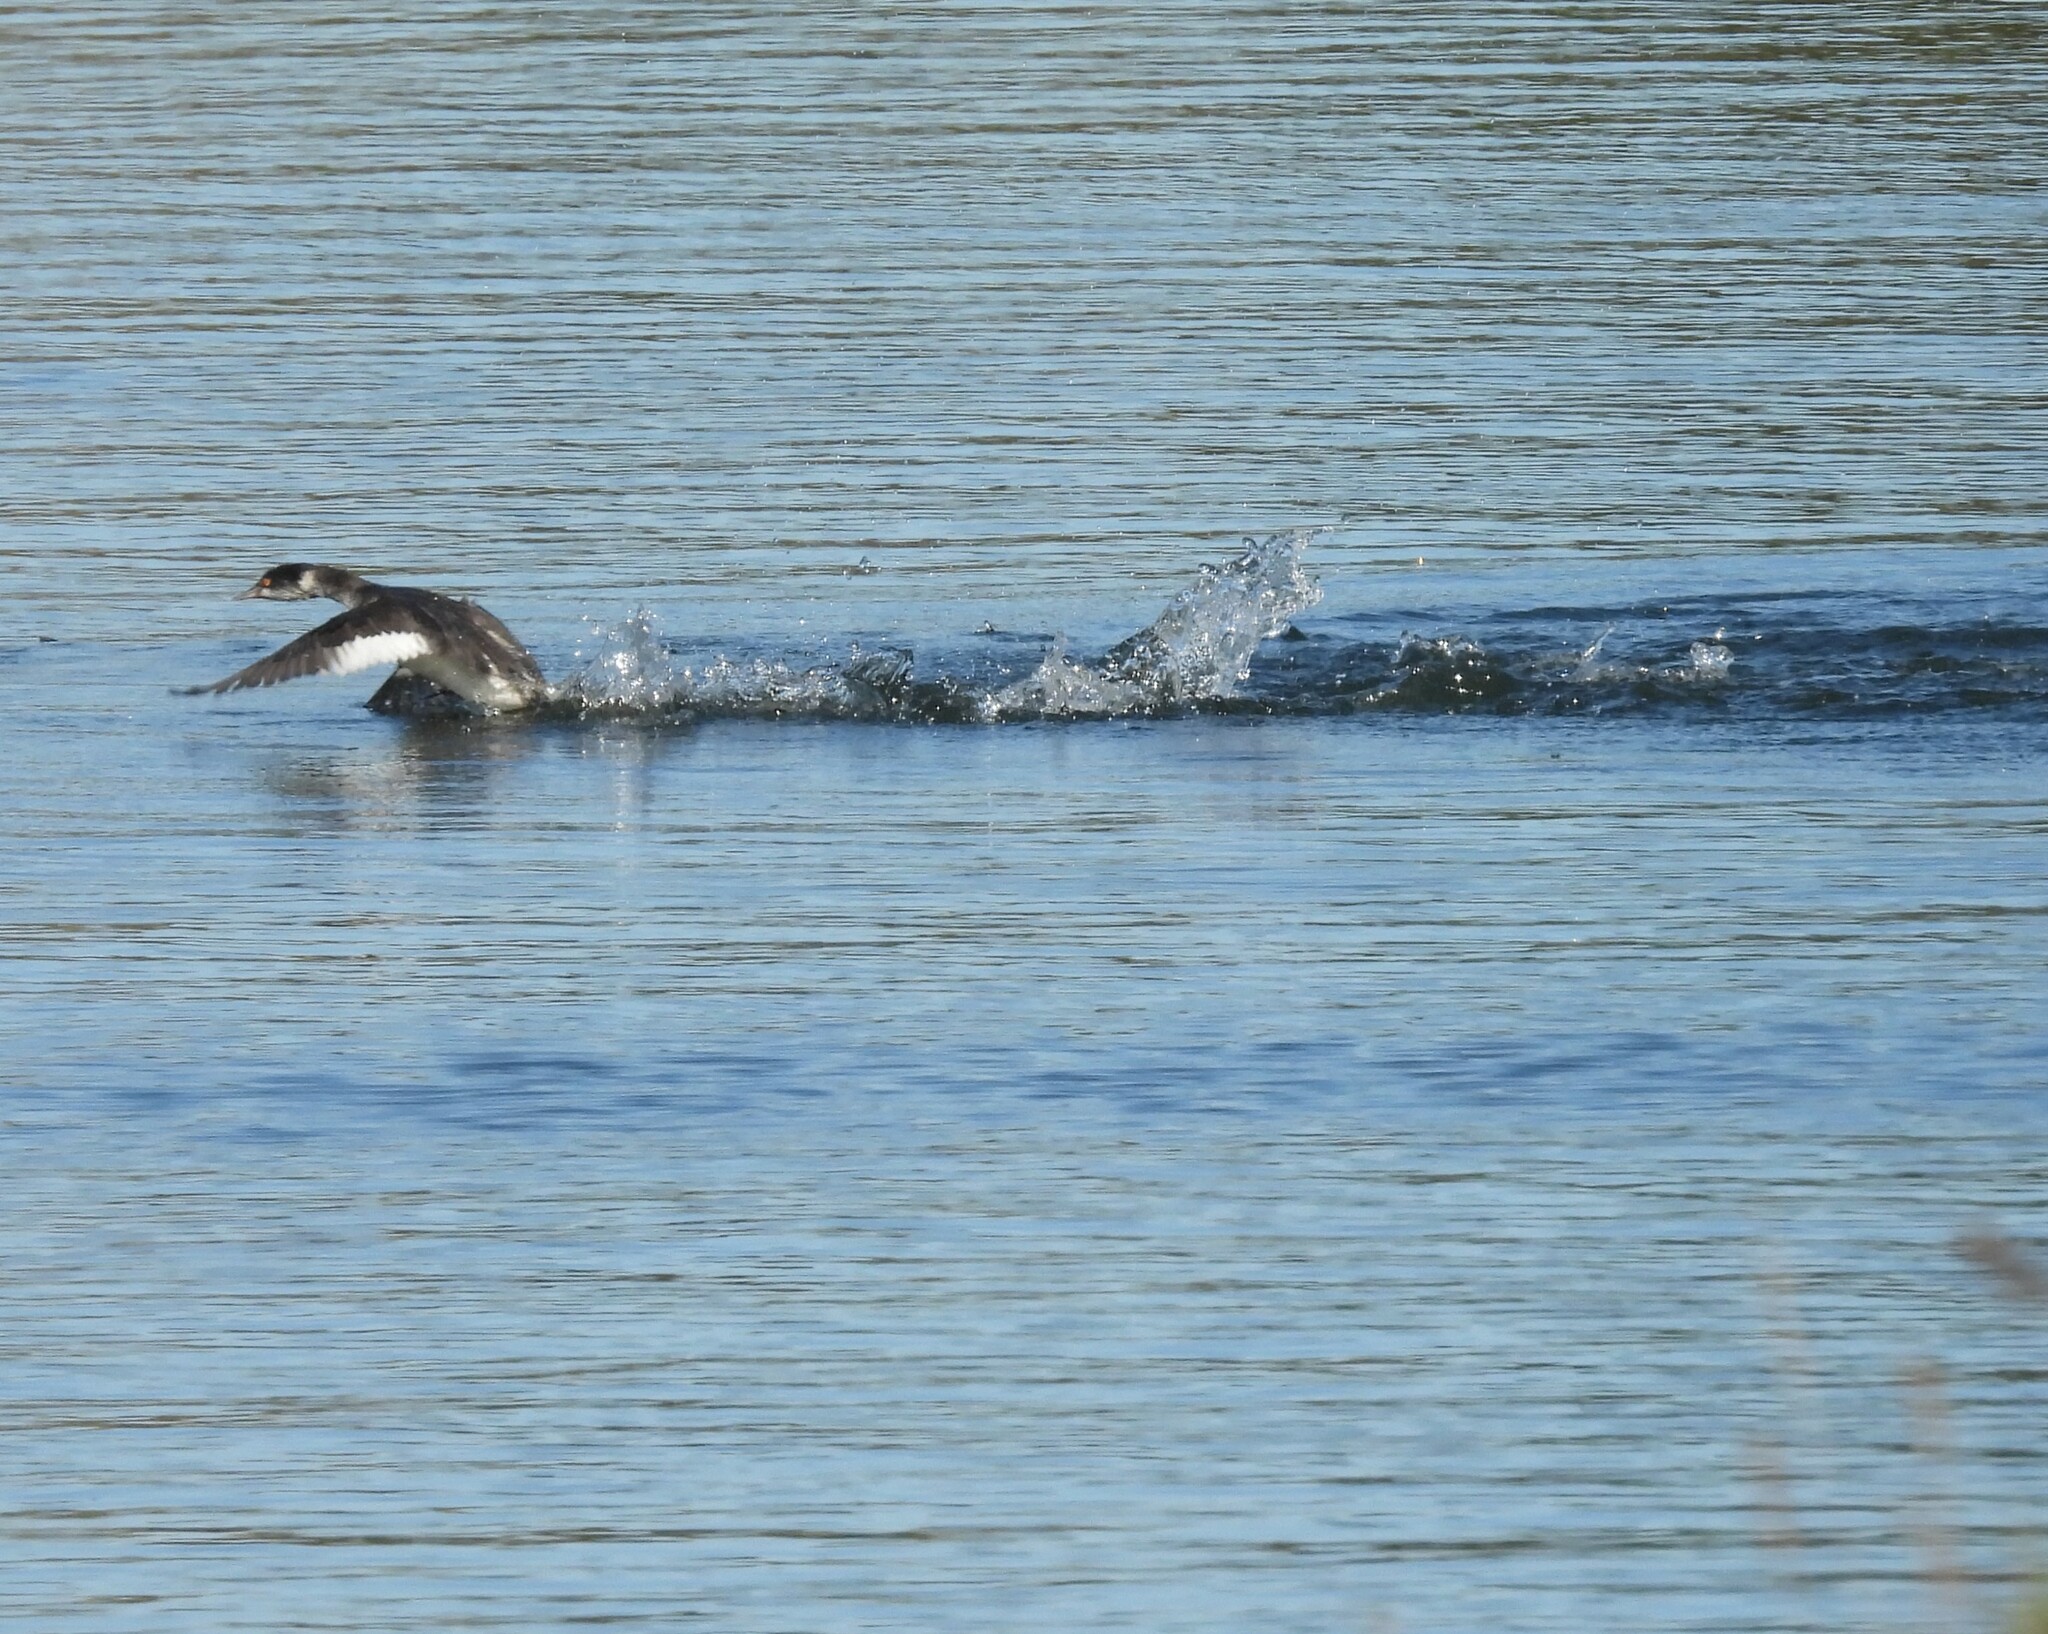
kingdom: Animalia
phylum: Chordata
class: Aves
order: Podicipediformes
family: Podicipedidae
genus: Podiceps
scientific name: Podiceps nigricollis
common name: Black-necked grebe
